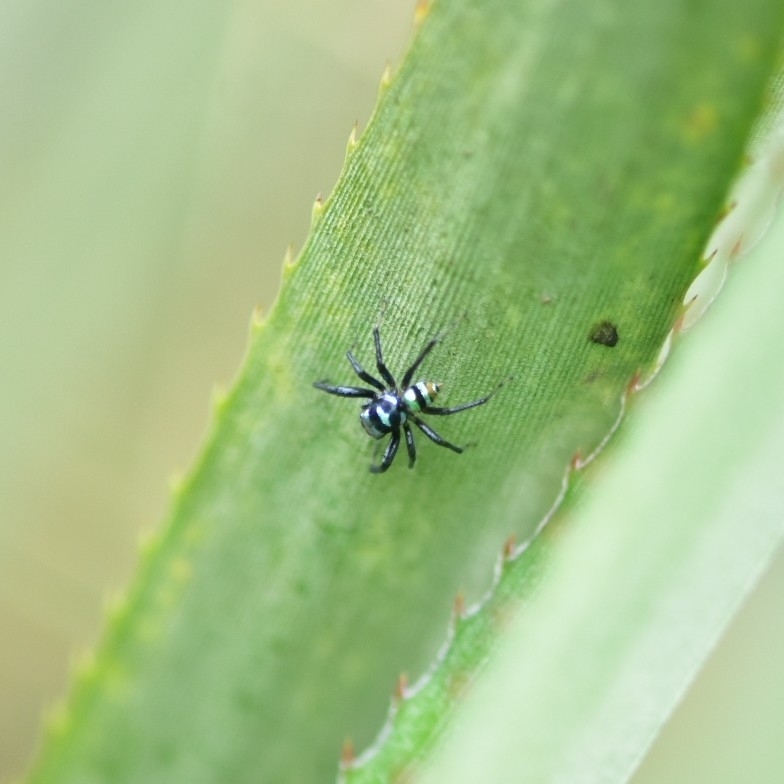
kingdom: Animalia
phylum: Arthropoda
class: Arachnida
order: Araneae
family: Salticidae
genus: Phintella
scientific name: Phintella vittata
